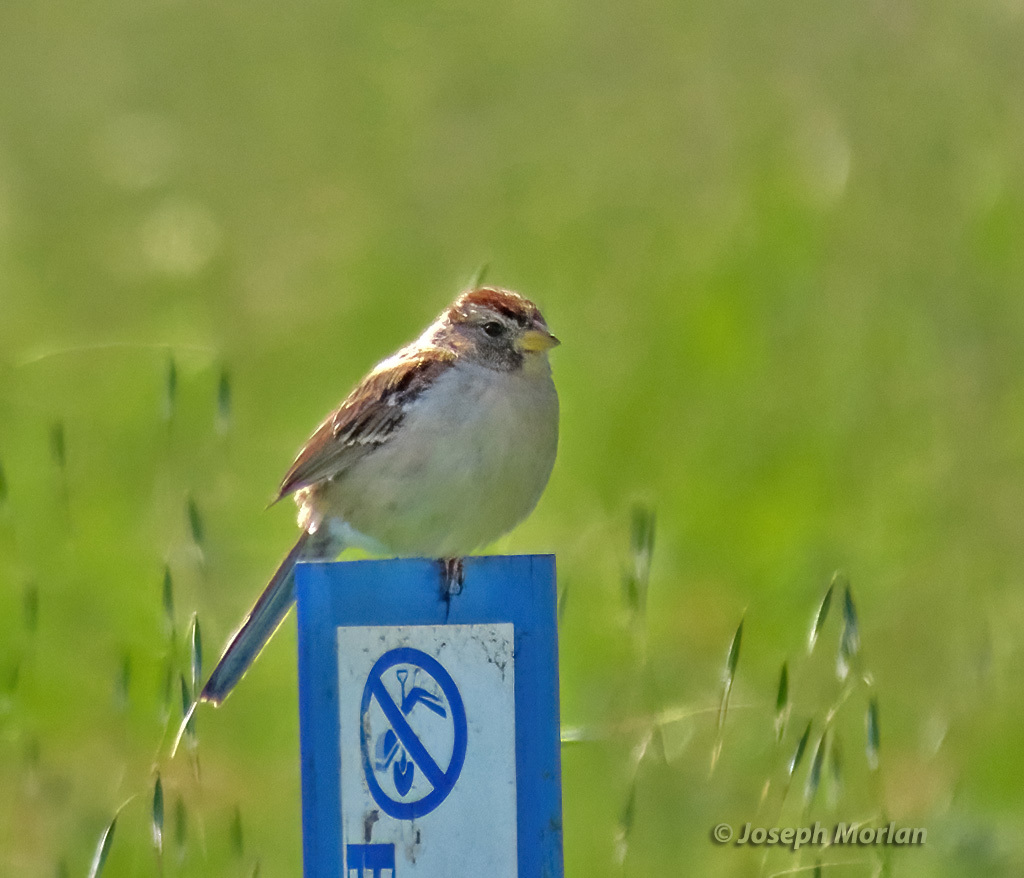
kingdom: Animalia
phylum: Chordata
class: Aves
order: Passeriformes
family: Passerellidae
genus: Zonotrichia
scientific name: Zonotrichia leucophrys
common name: White-crowned sparrow
